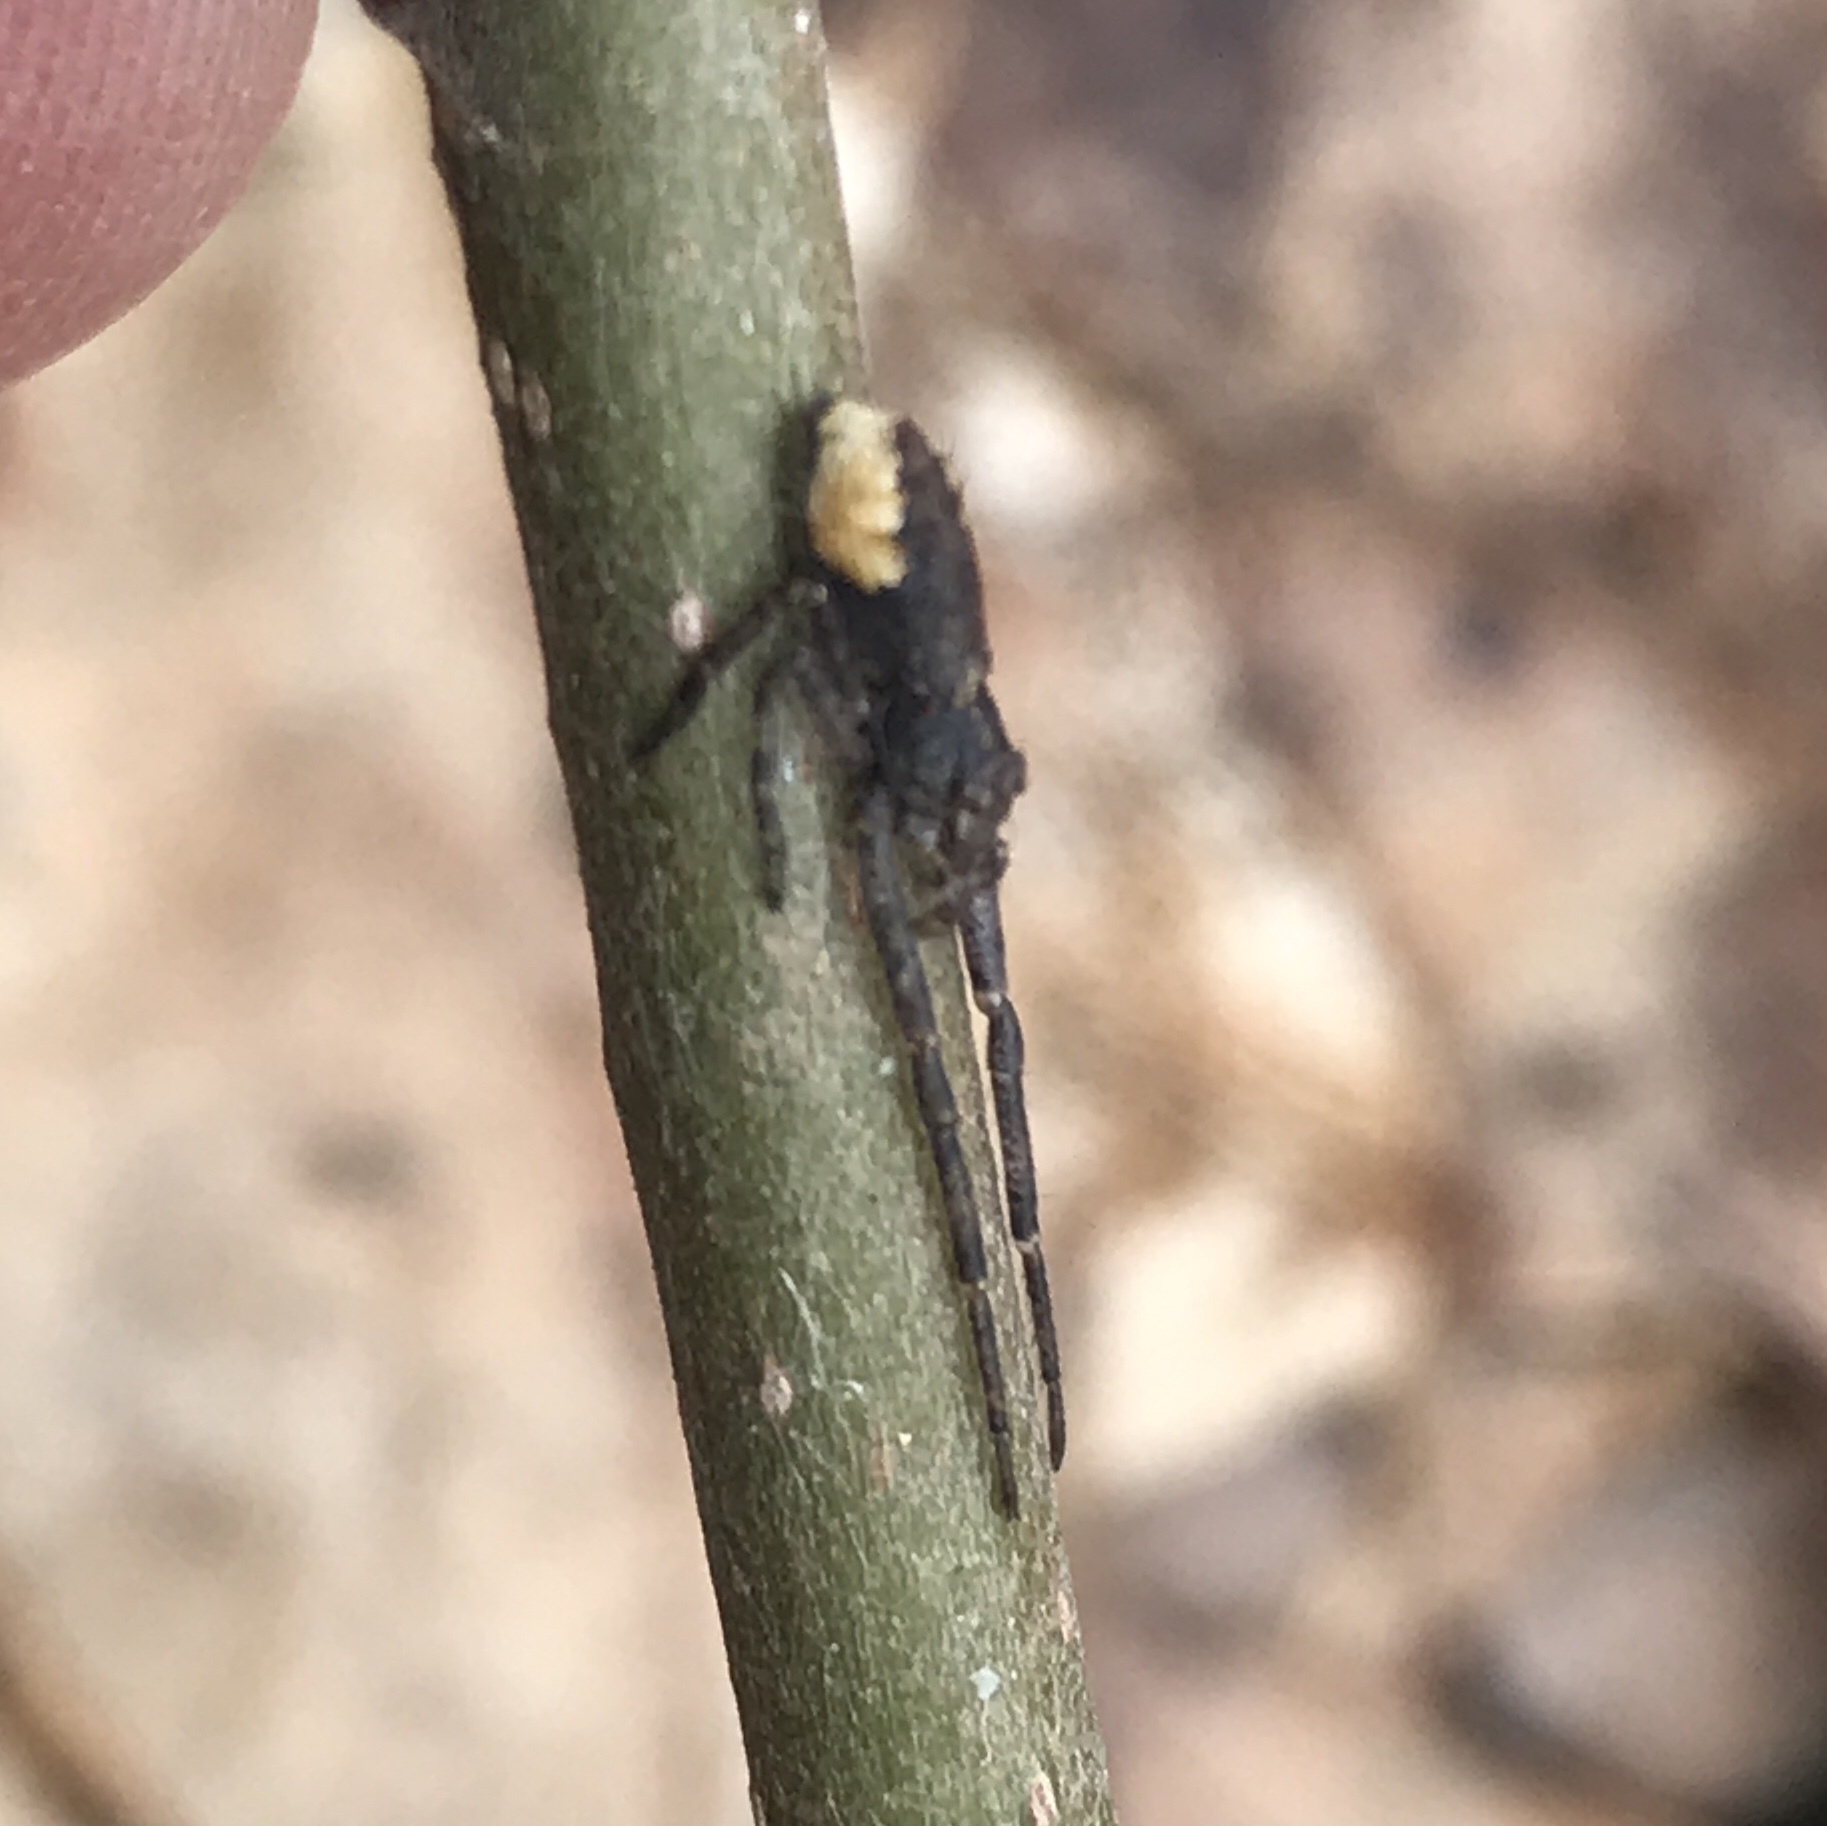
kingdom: Animalia
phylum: Arthropoda
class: Arachnida
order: Araneae
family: Thomisidae
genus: Tmarus
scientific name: Tmarus angulatus
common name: Tuberculated crab spider
